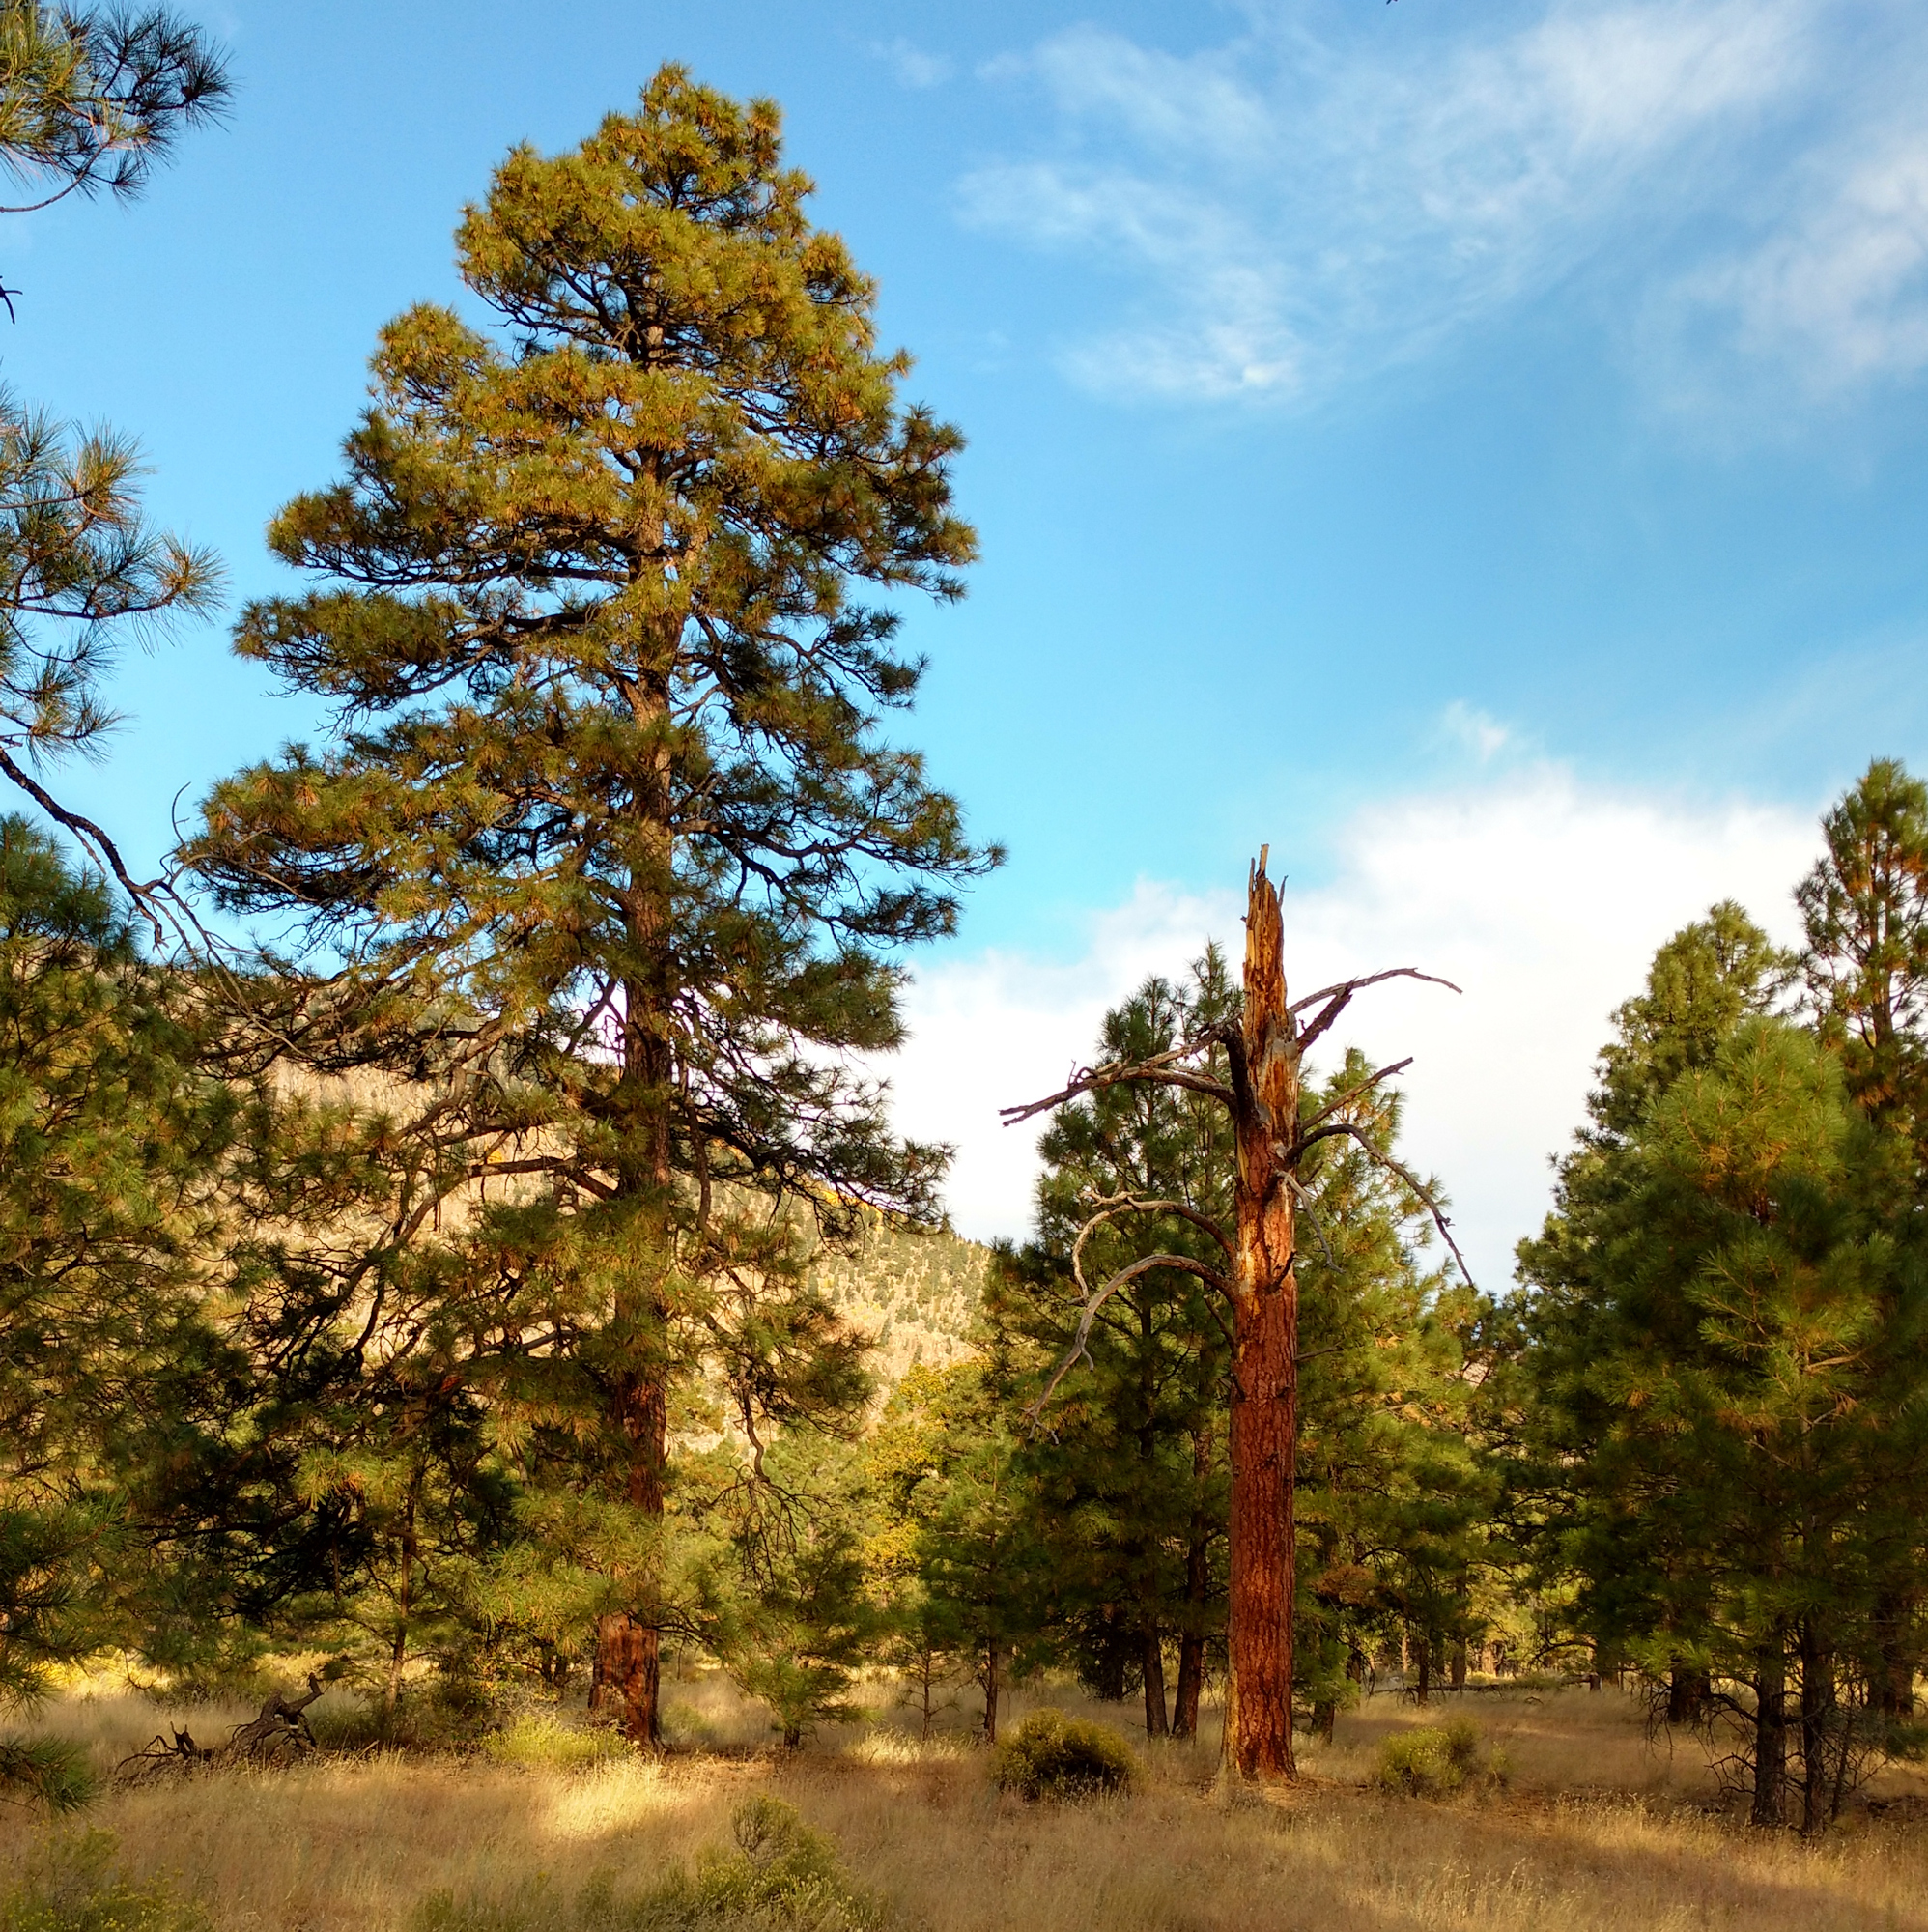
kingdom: Plantae
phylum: Tracheophyta
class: Pinopsida
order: Pinales
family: Pinaceae
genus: Pinus
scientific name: Pinus ponderosa
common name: Western yellow-pine
